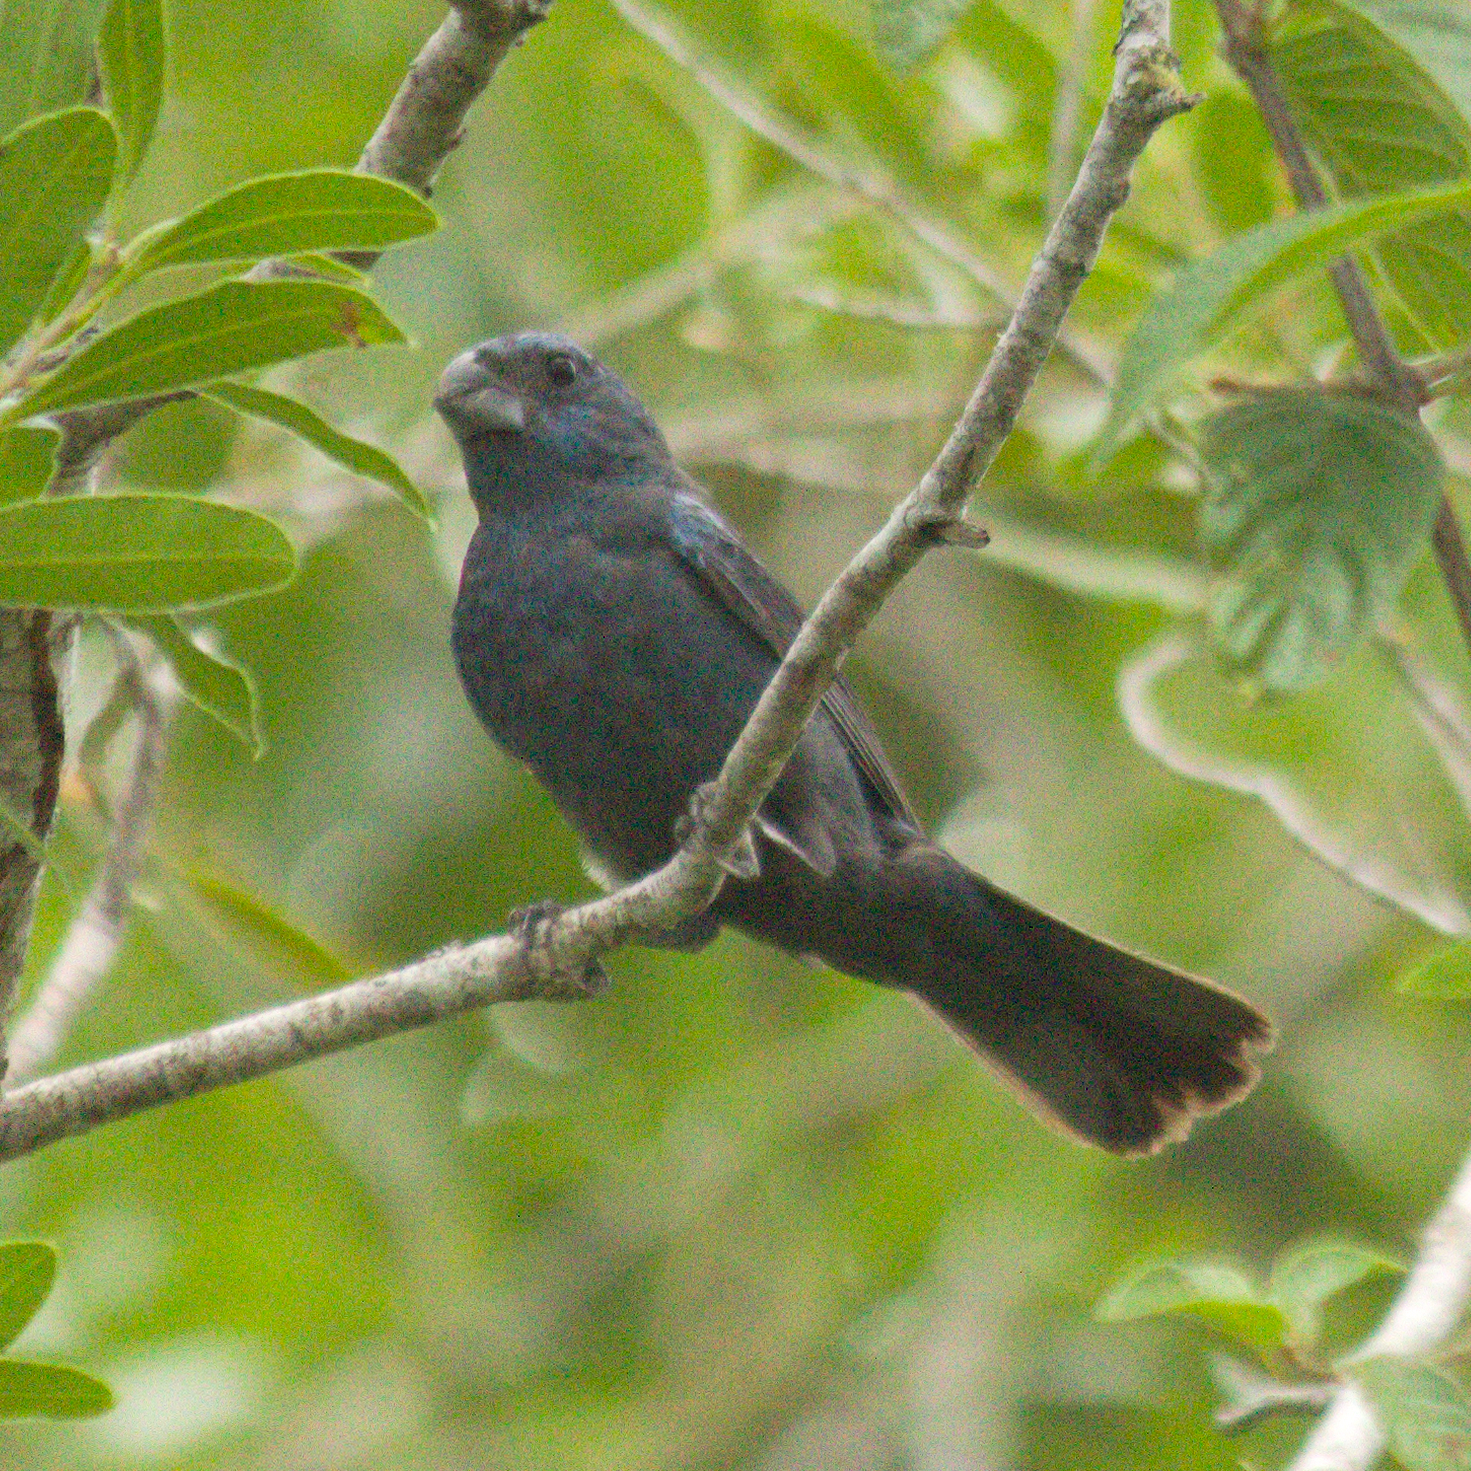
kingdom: Animalia
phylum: Chordata
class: Aves
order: Passeriformes
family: Cardinalidae
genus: Cyanoloxia
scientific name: Cyanoloxia glaucocaerulea
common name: Glaucous-blue grosbeak
